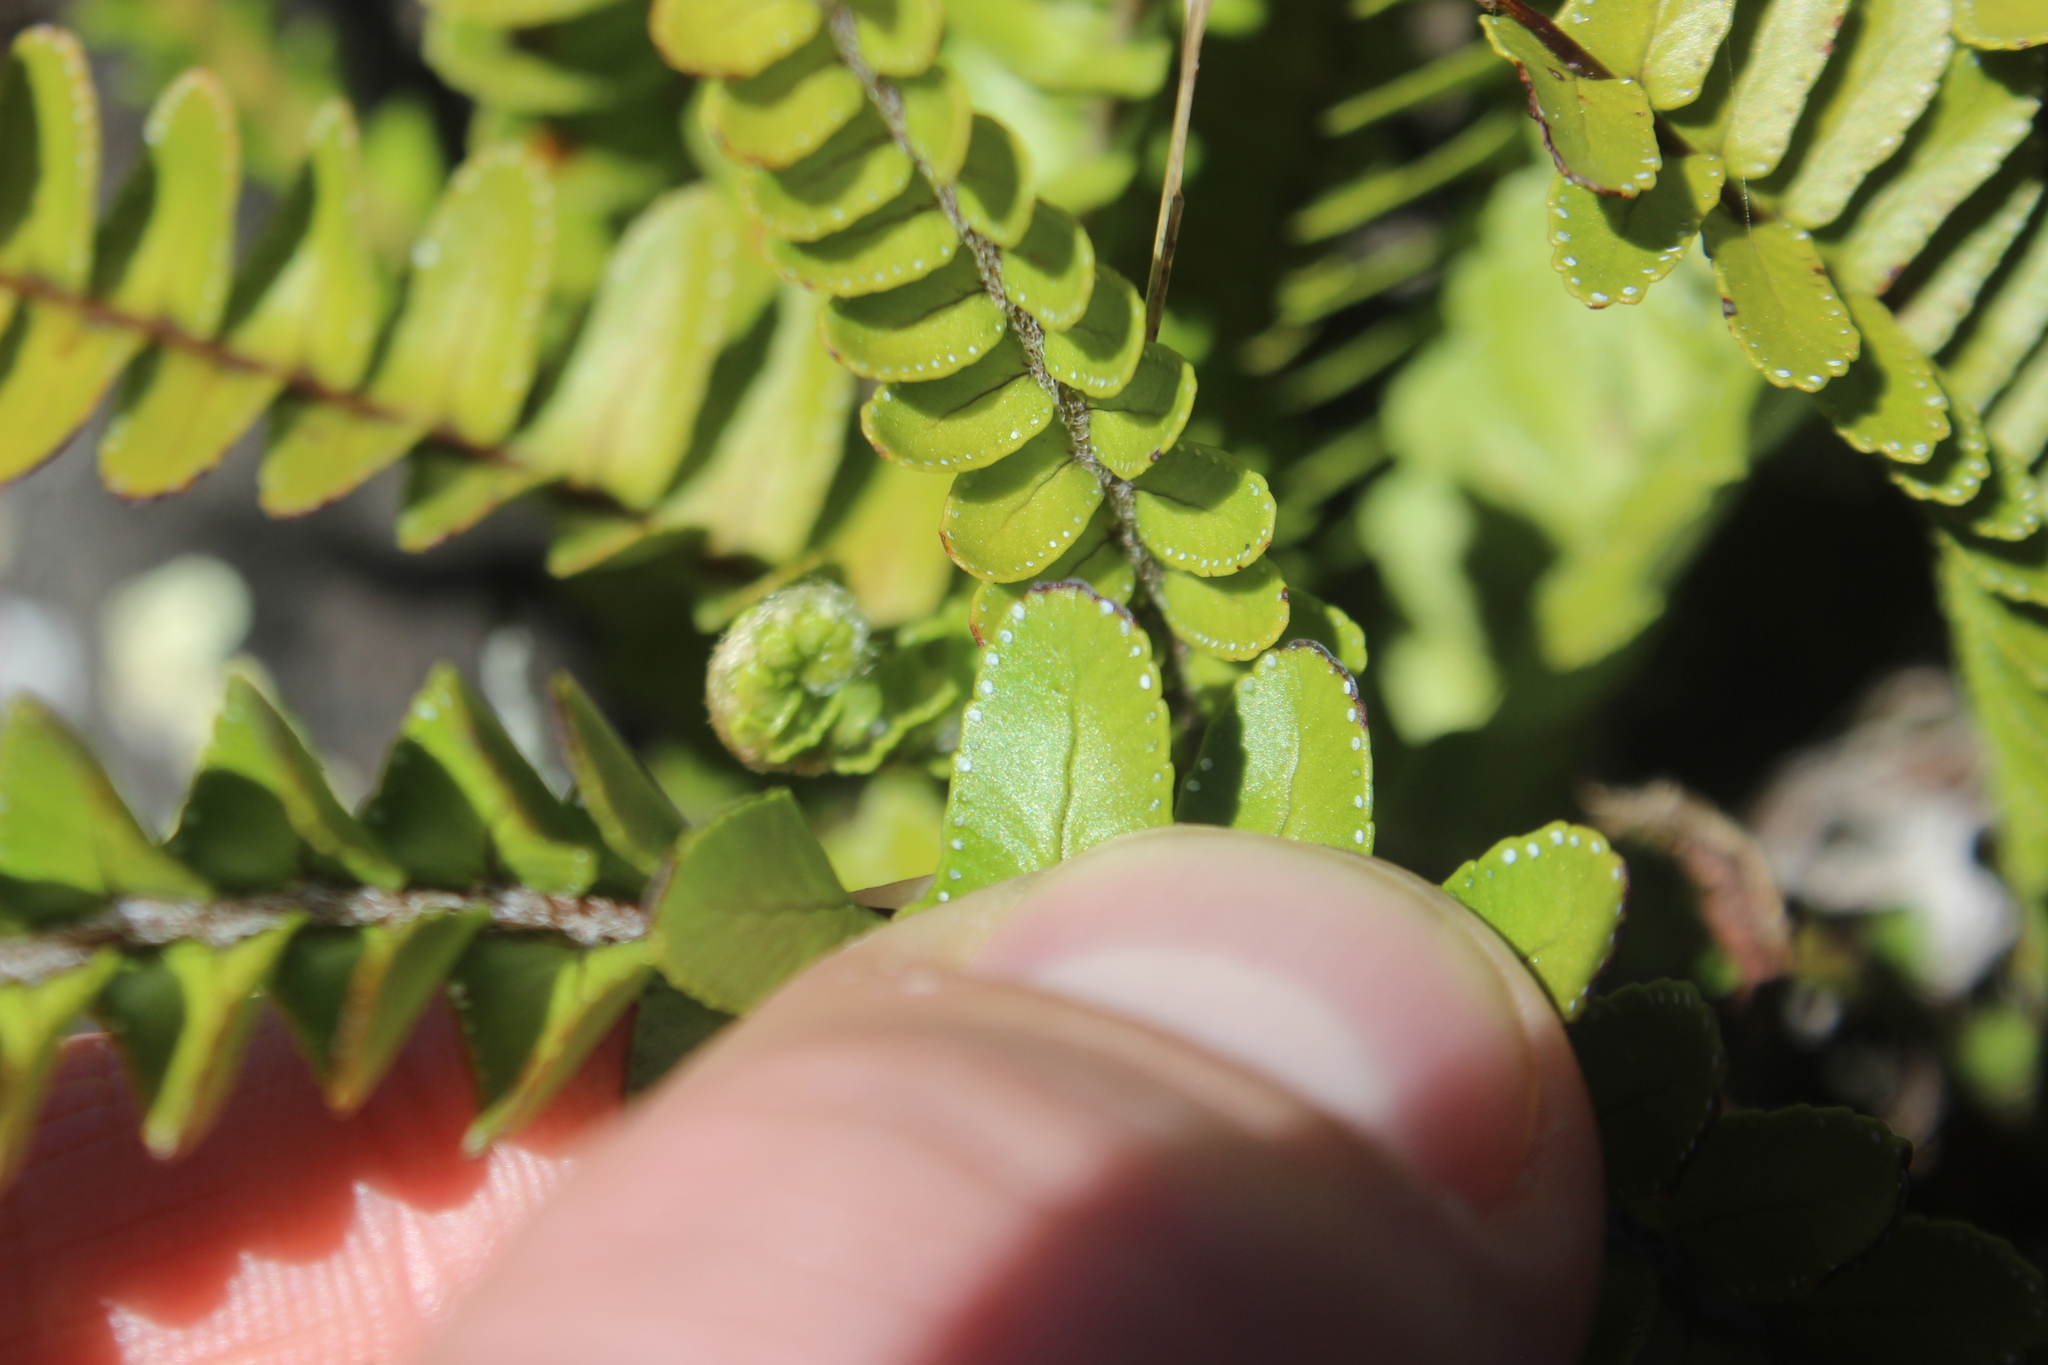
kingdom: Plantae
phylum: Tracheophyta
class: Polypodiopsida
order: Polypodiales
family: Nephrolepidaceae
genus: Nephrolepis
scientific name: Nephrolepis cordifolia
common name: Narrow swordfern
